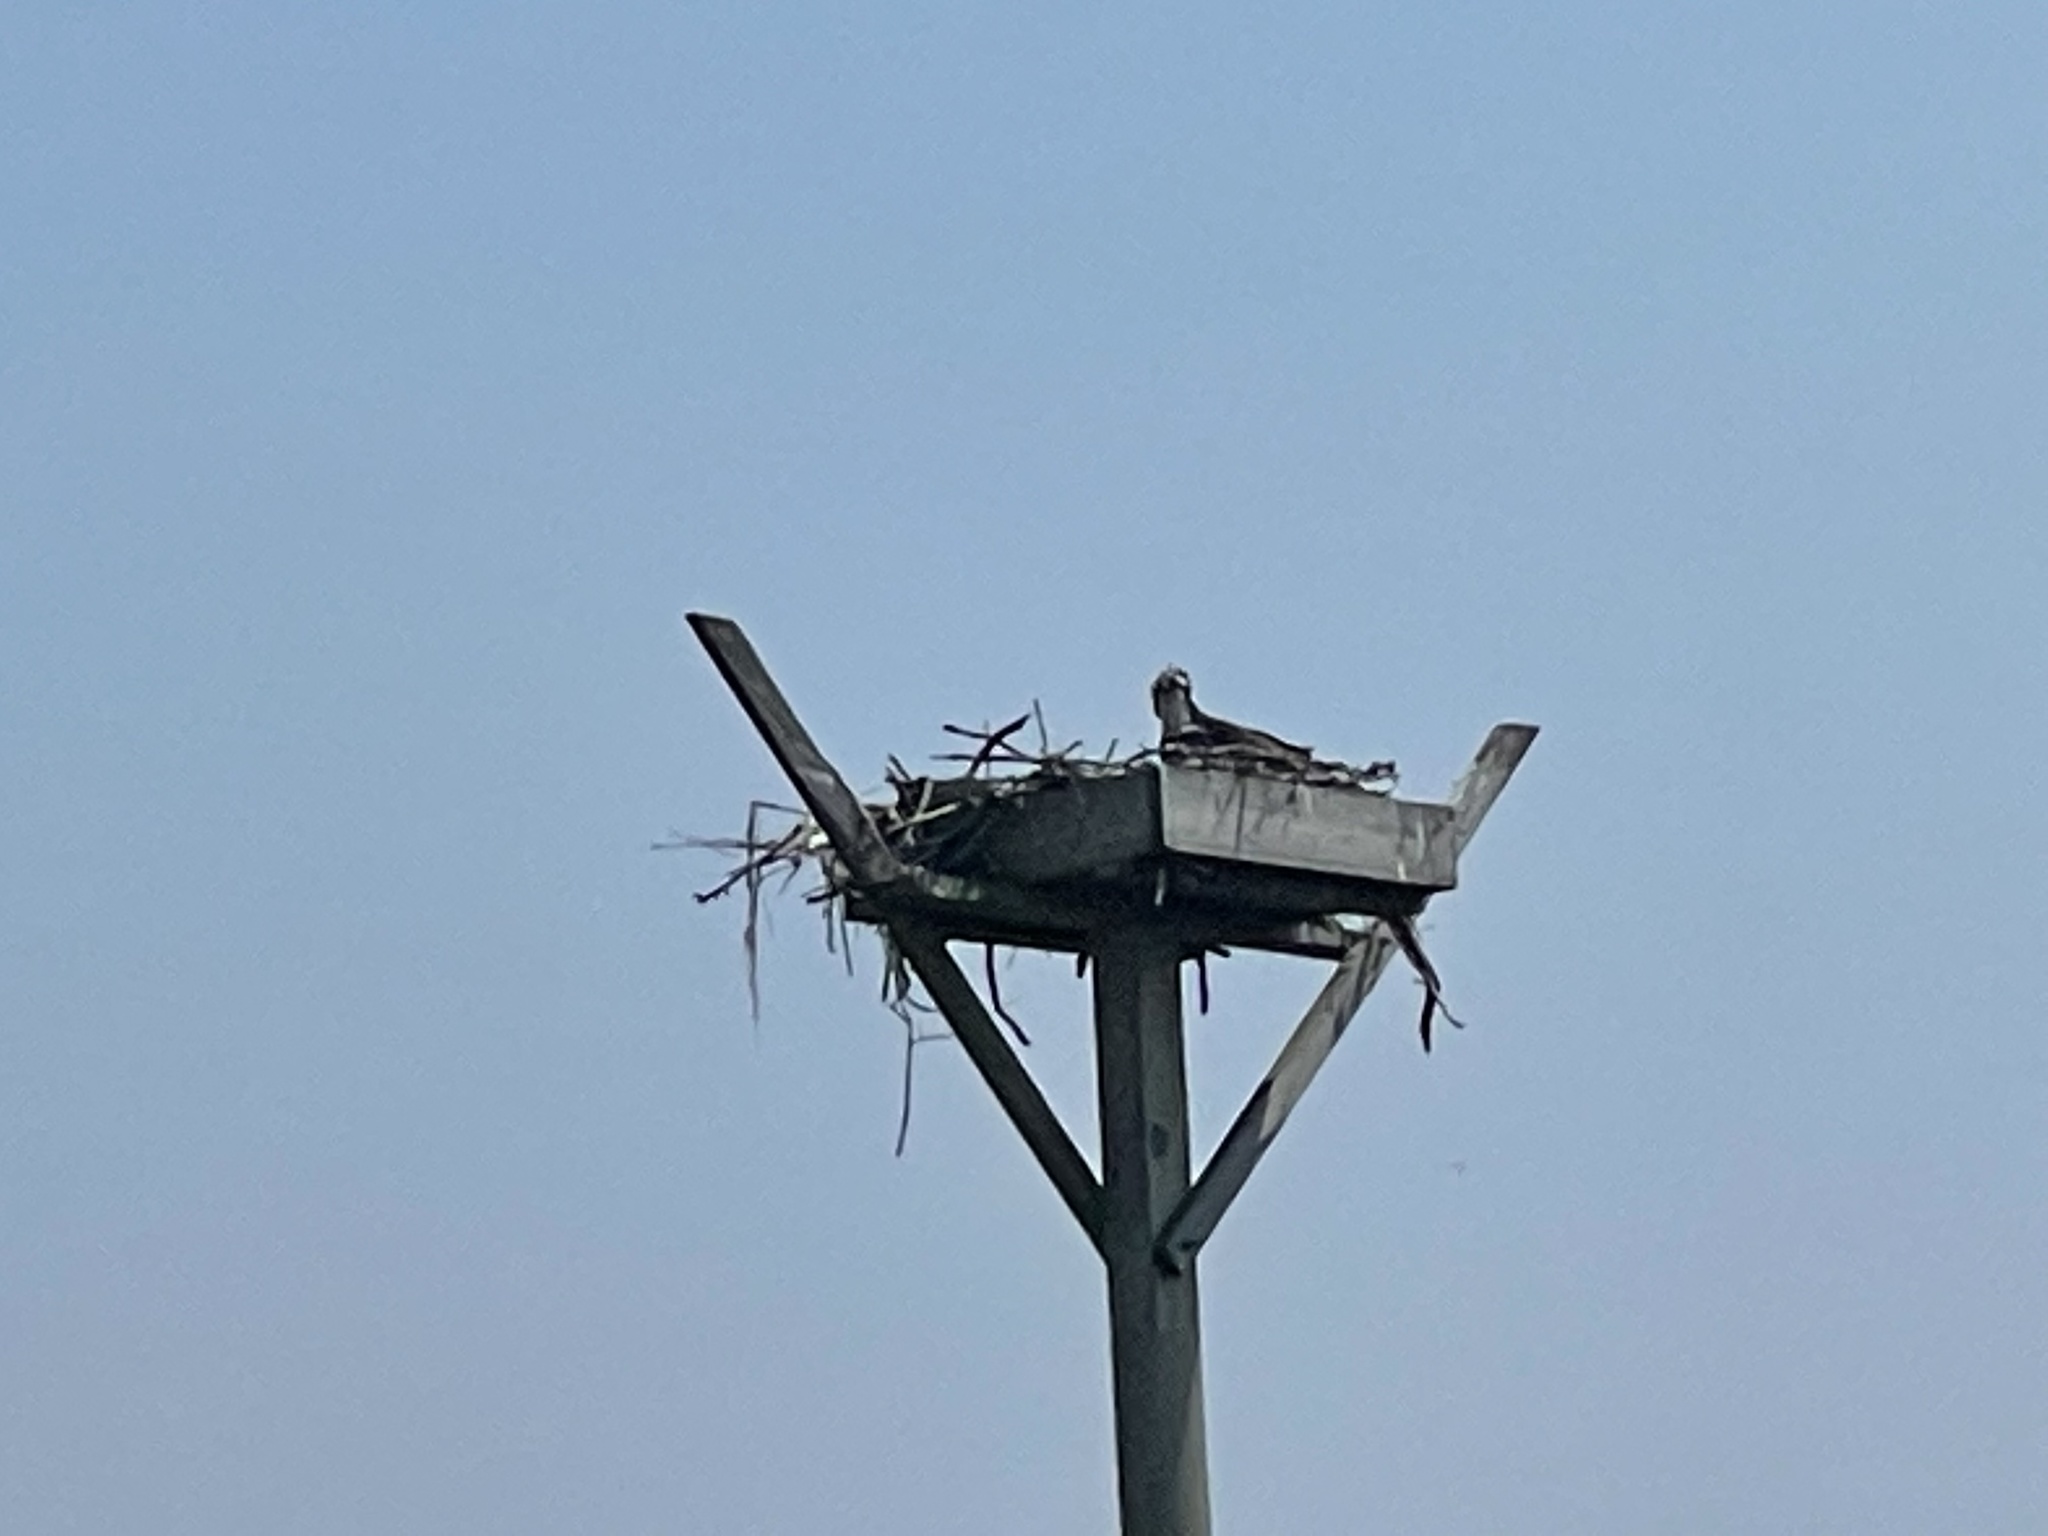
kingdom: Animalia
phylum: Chordata
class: Aves
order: Accipitriformes
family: Pandionidae
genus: Pandion
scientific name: Pandion haliaetus
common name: Osprey
